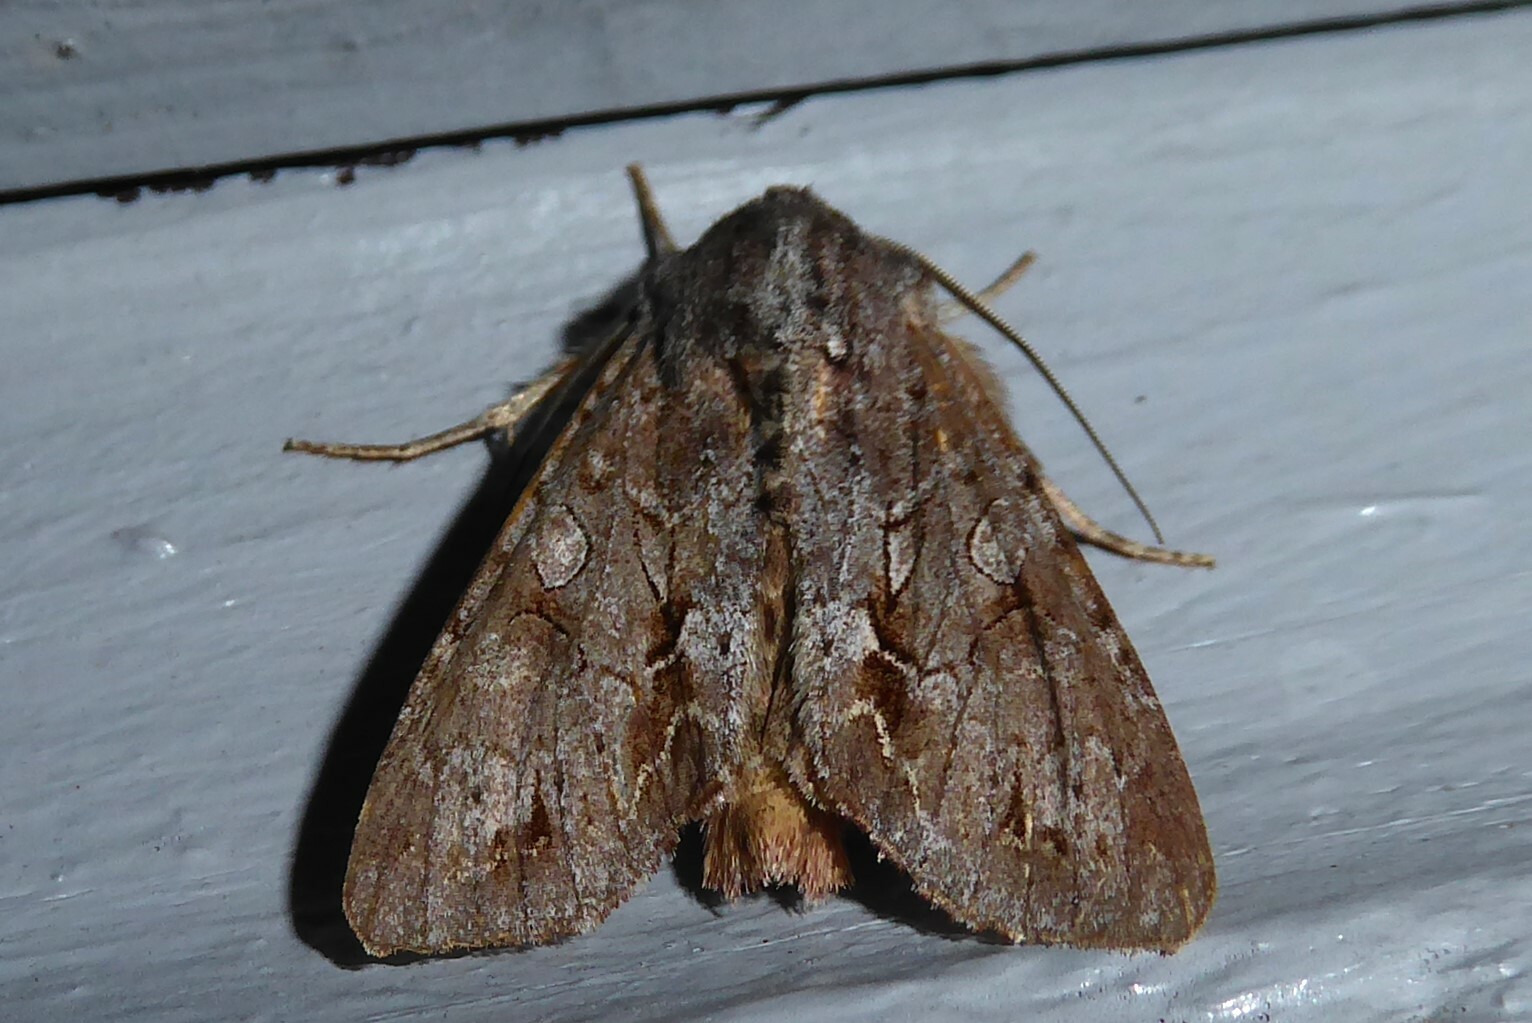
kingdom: Animalia
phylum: Arthropoda
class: Insecta
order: Lepidoptera
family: Noctuidae
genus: Ichneutica
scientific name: Ichneutica
